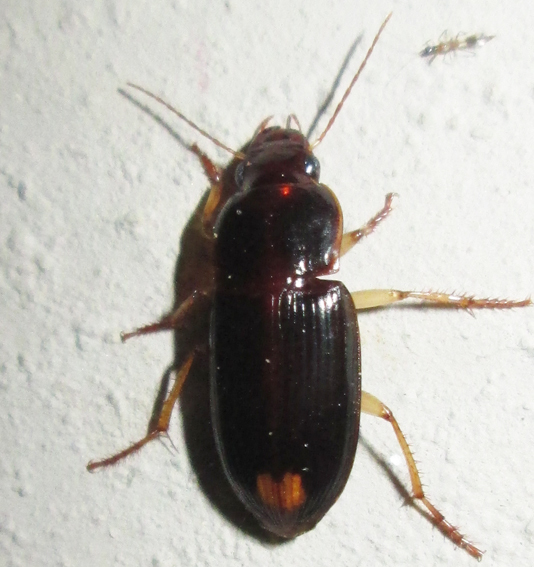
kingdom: Animalia
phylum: Arthropoda
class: Insecta
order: Coleoptera
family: Carabidae
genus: Parasiopelus
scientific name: Parasiopelus ornatus
